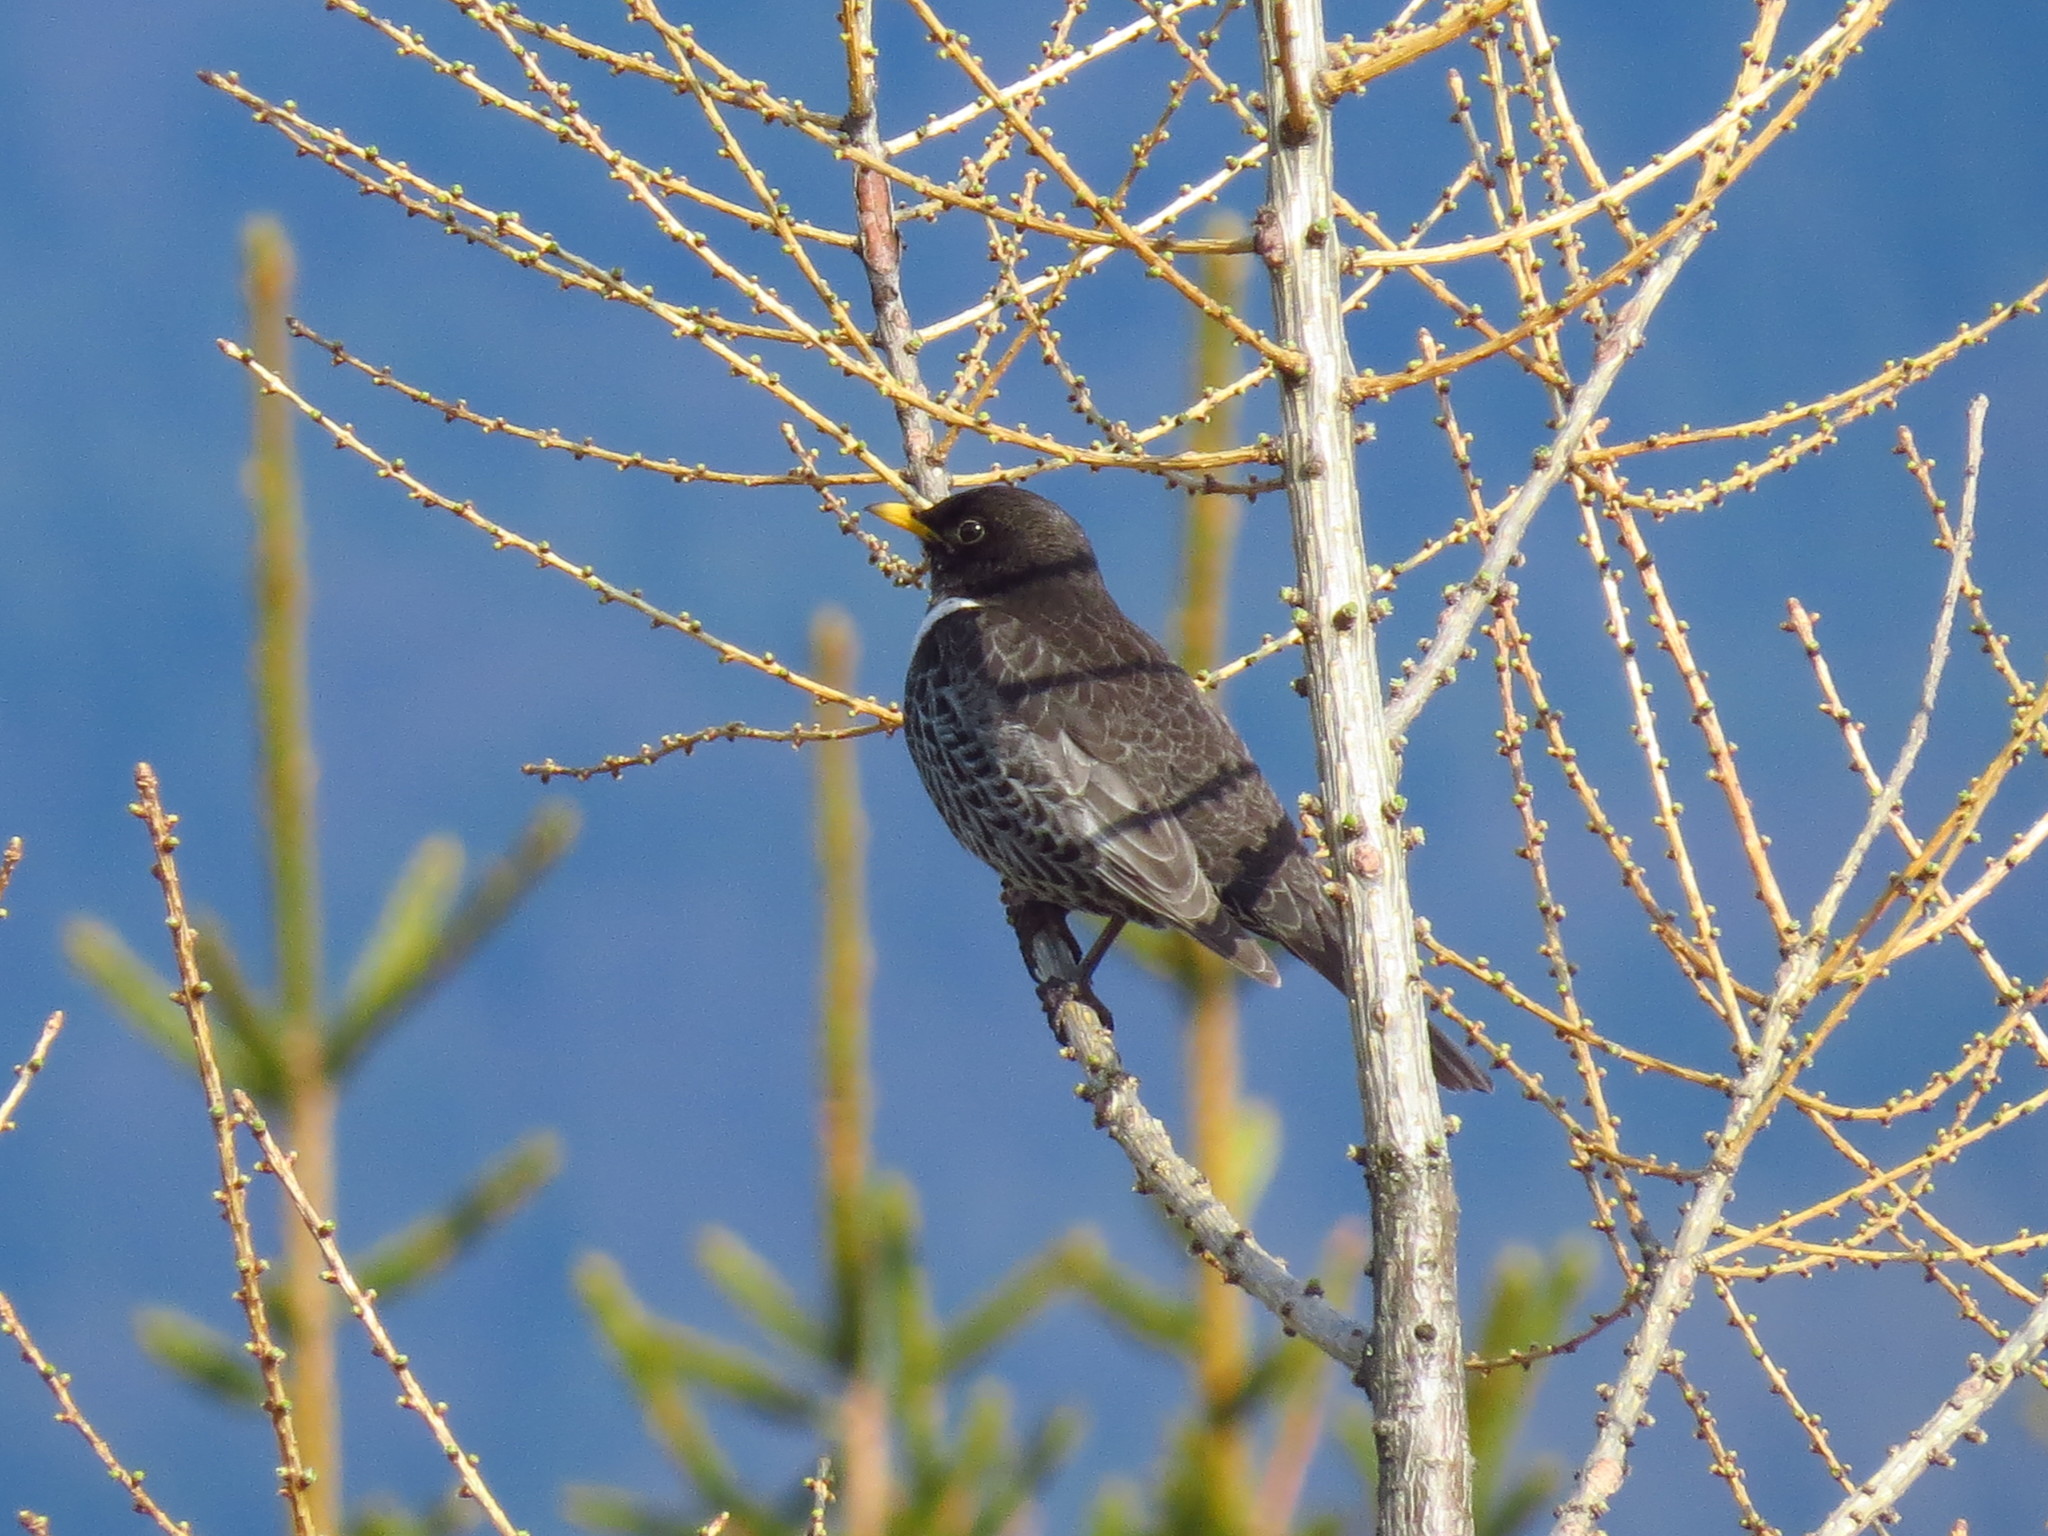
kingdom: Animalia
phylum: Chordata
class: Aves
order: Passeriformes
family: Turdidae
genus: Turdus
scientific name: Turdus torquatus
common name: Ring ouzel
